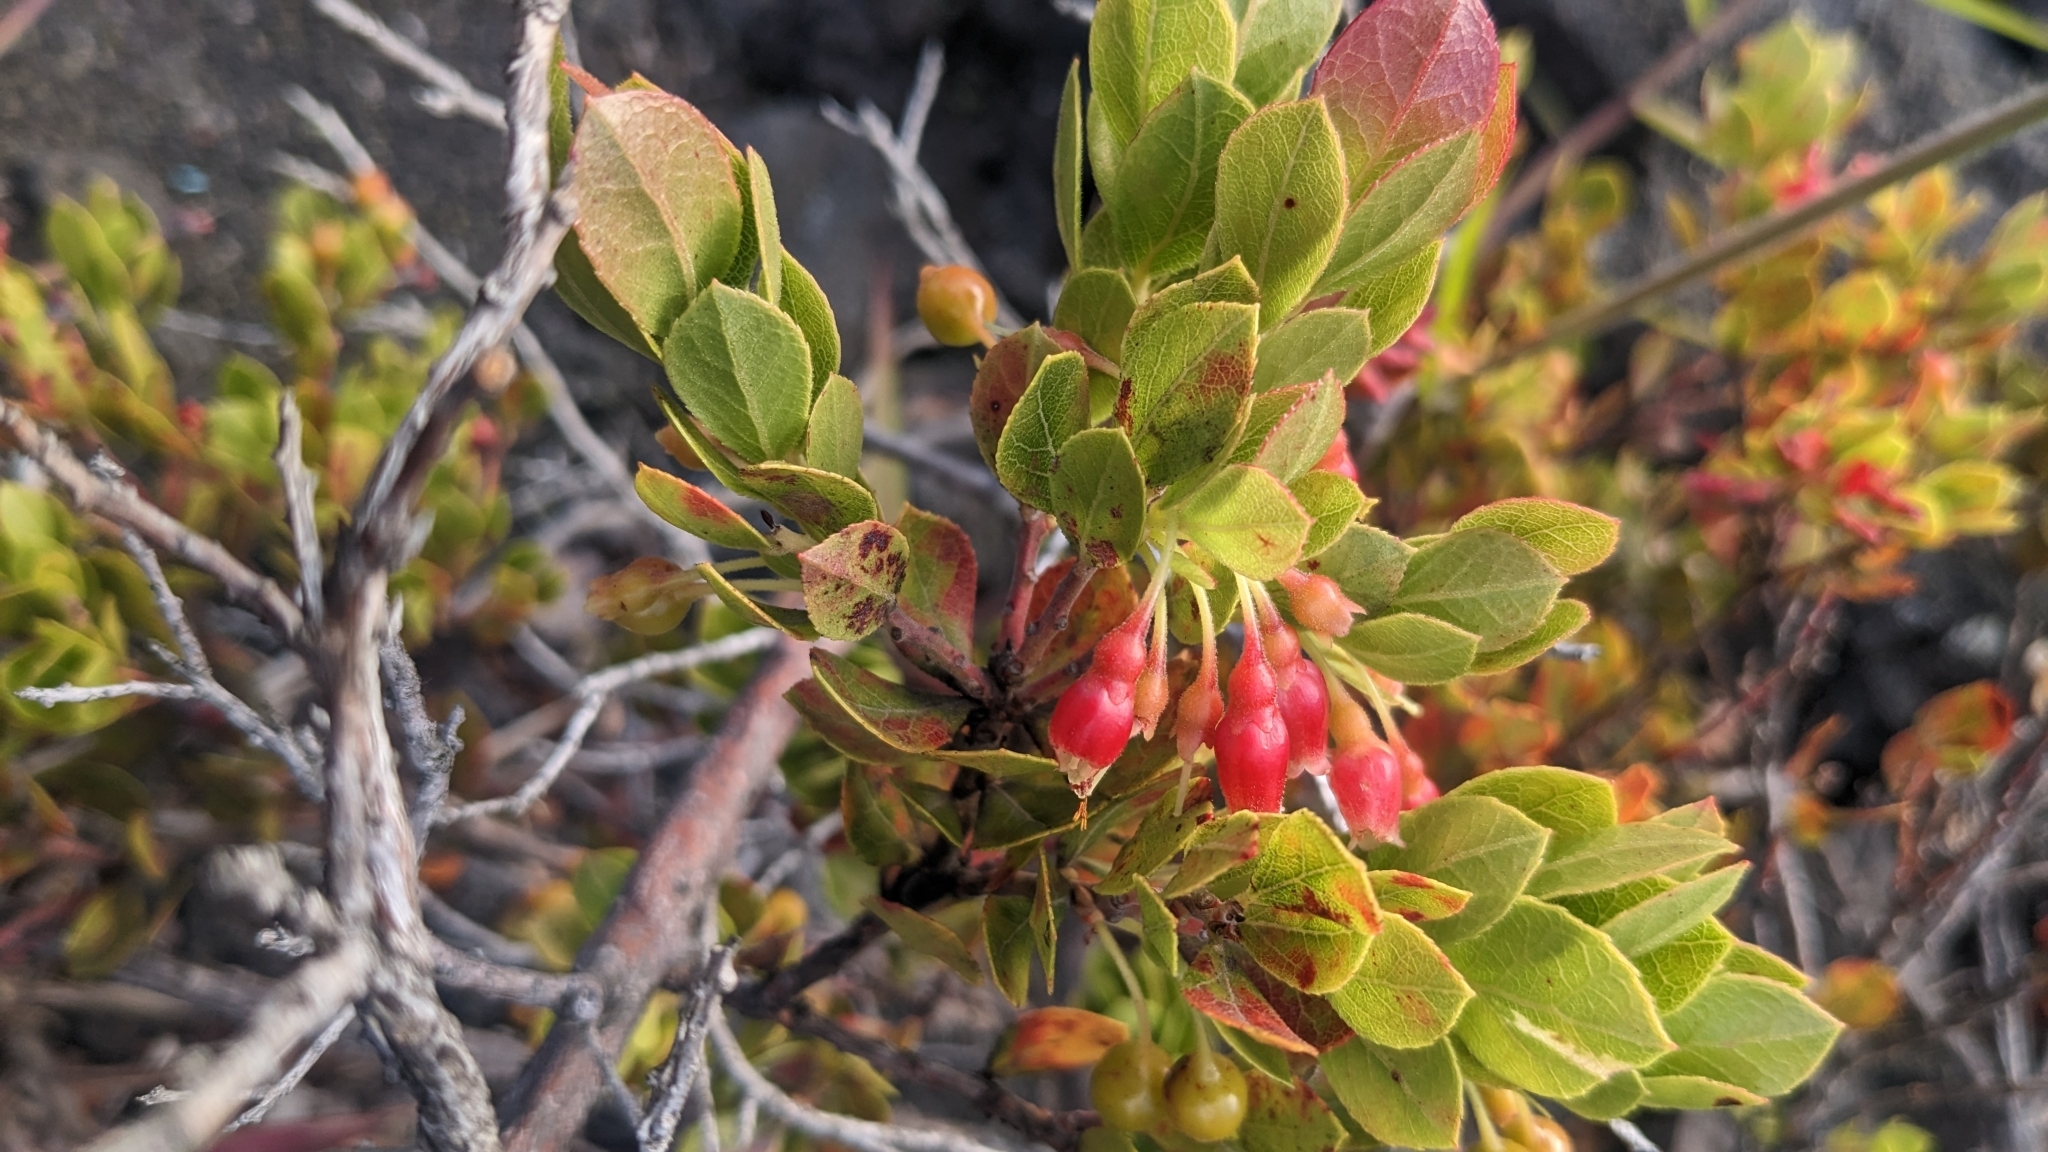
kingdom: Plantae
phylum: Tracheophyta
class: Magnoliopsida
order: Ericales
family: Ericaceae
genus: Vaccinium
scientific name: Vaccinium reticulatum
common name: Ohelo
